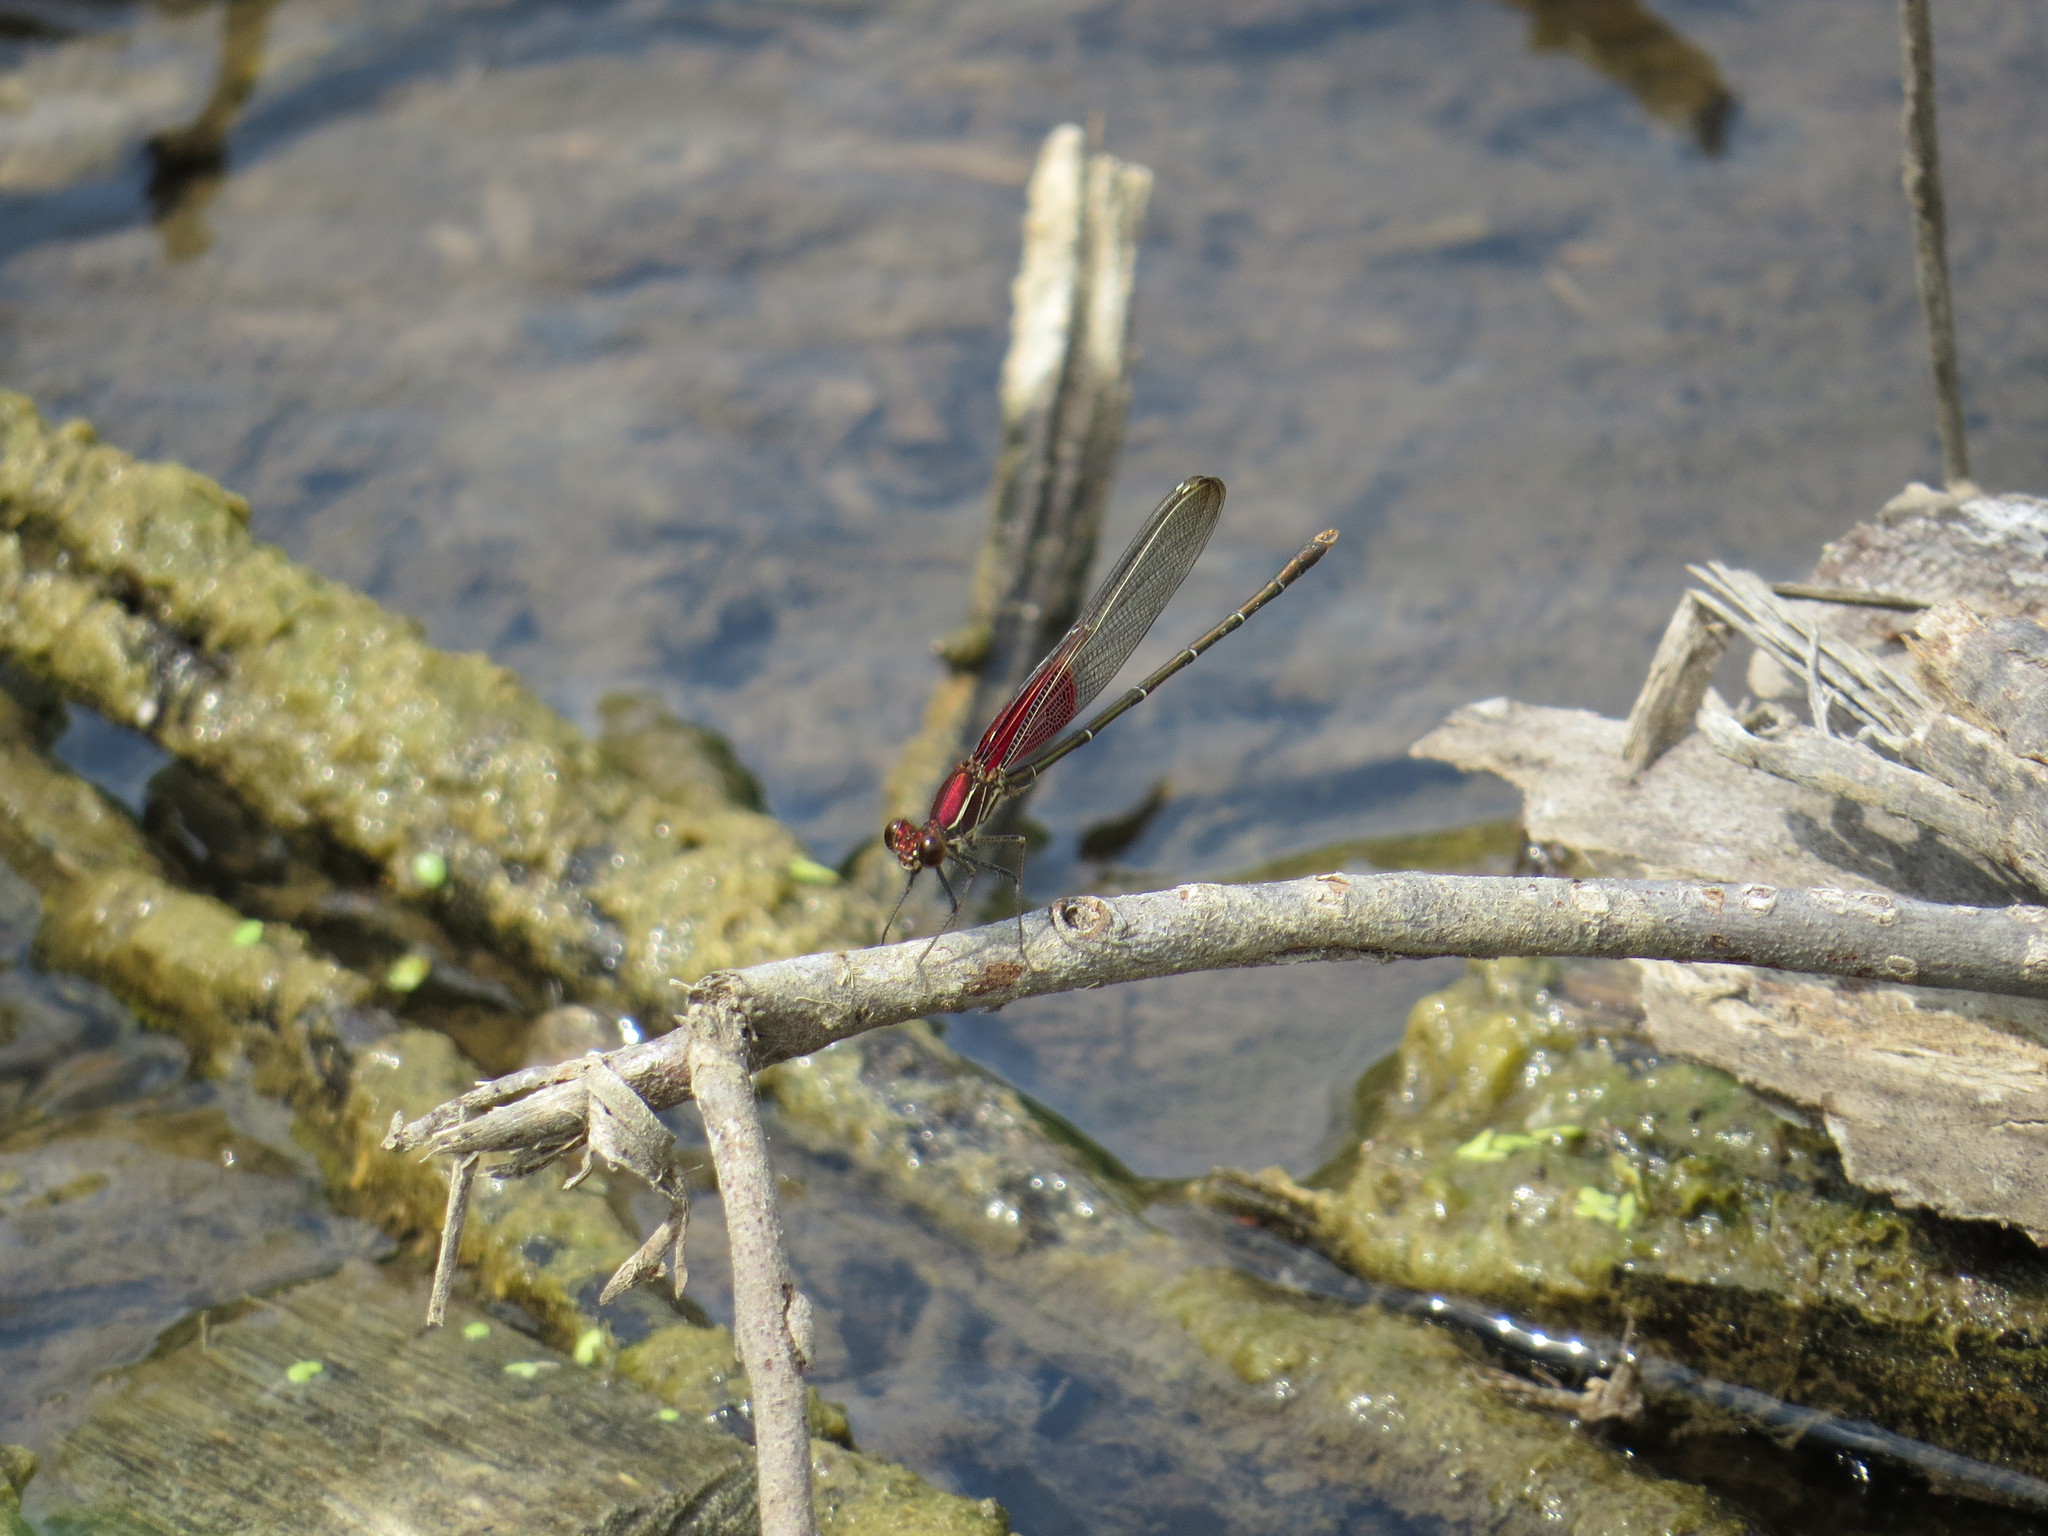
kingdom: Animalia
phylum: Arthropoda
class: Insecta
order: Odonata
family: Calopterygidae
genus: Hetaerina
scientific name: Hetaerina americana
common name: American rubyspot
